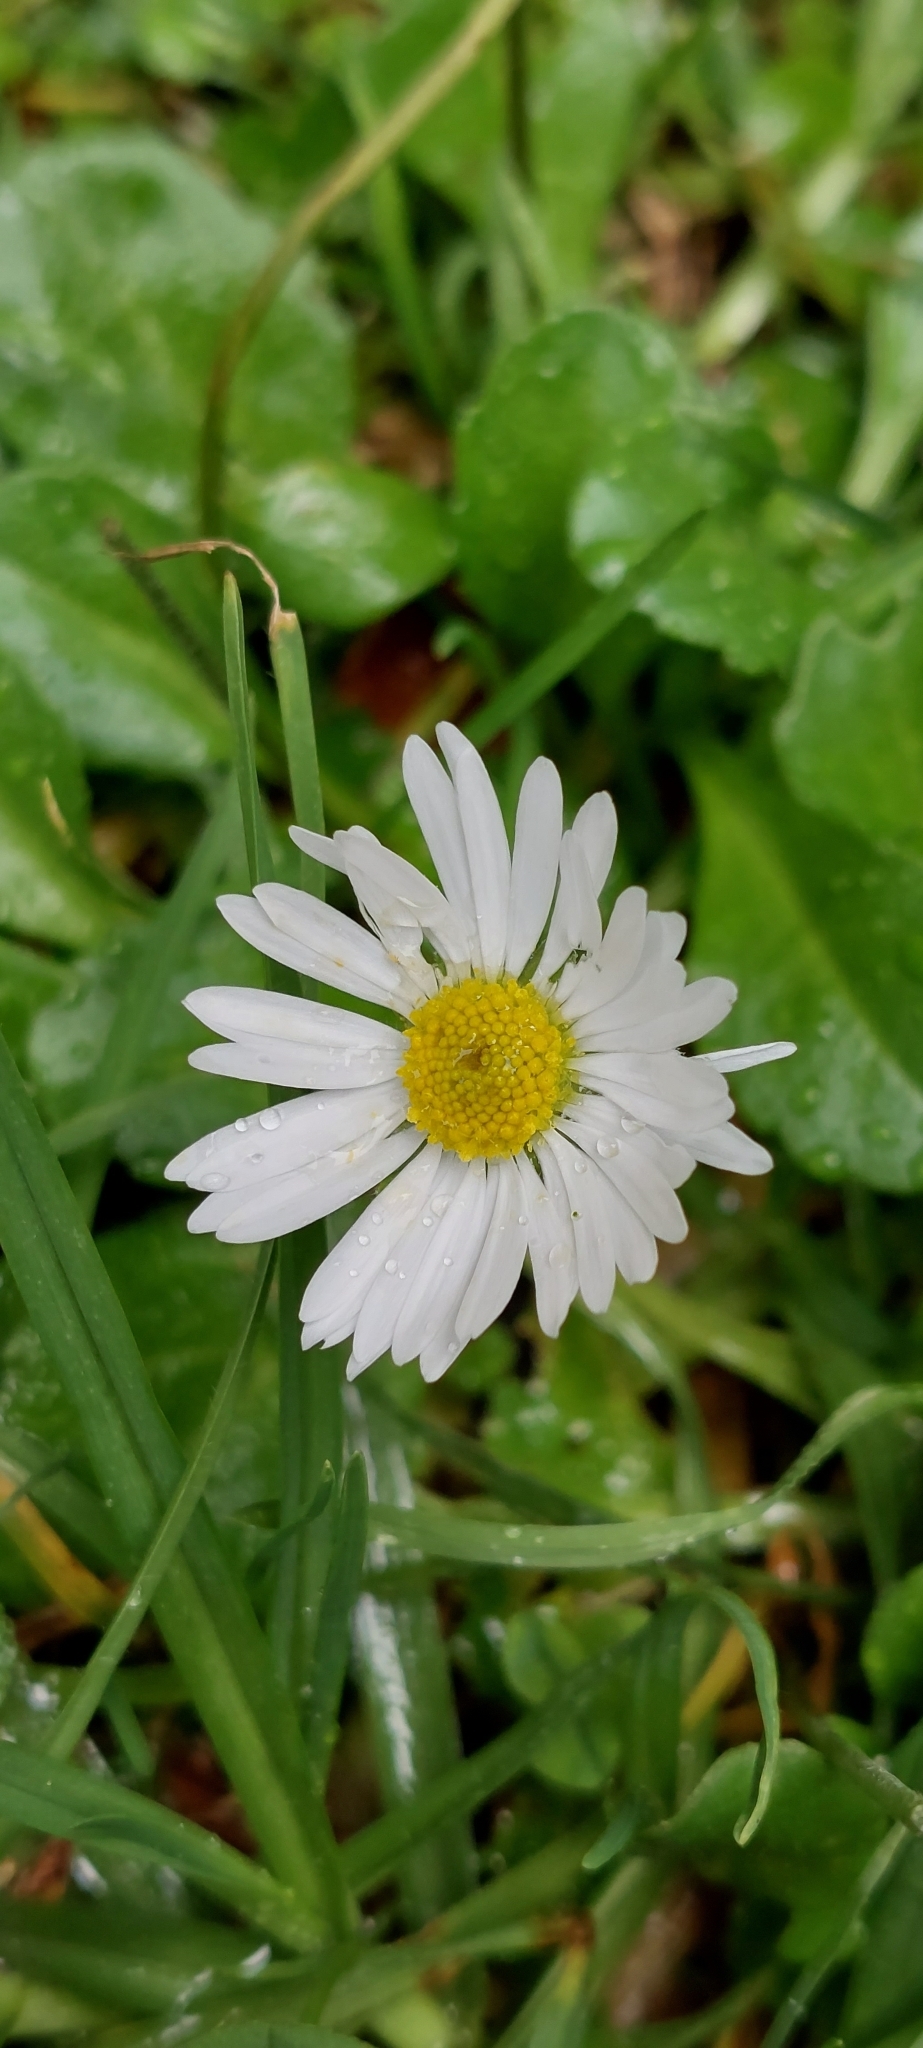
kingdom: Plantae
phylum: Tracheophyta
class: Magnoliopsida
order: Asterales
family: Asteraceae
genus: Bellis
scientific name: Bellis perennis
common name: Lawndaisy
